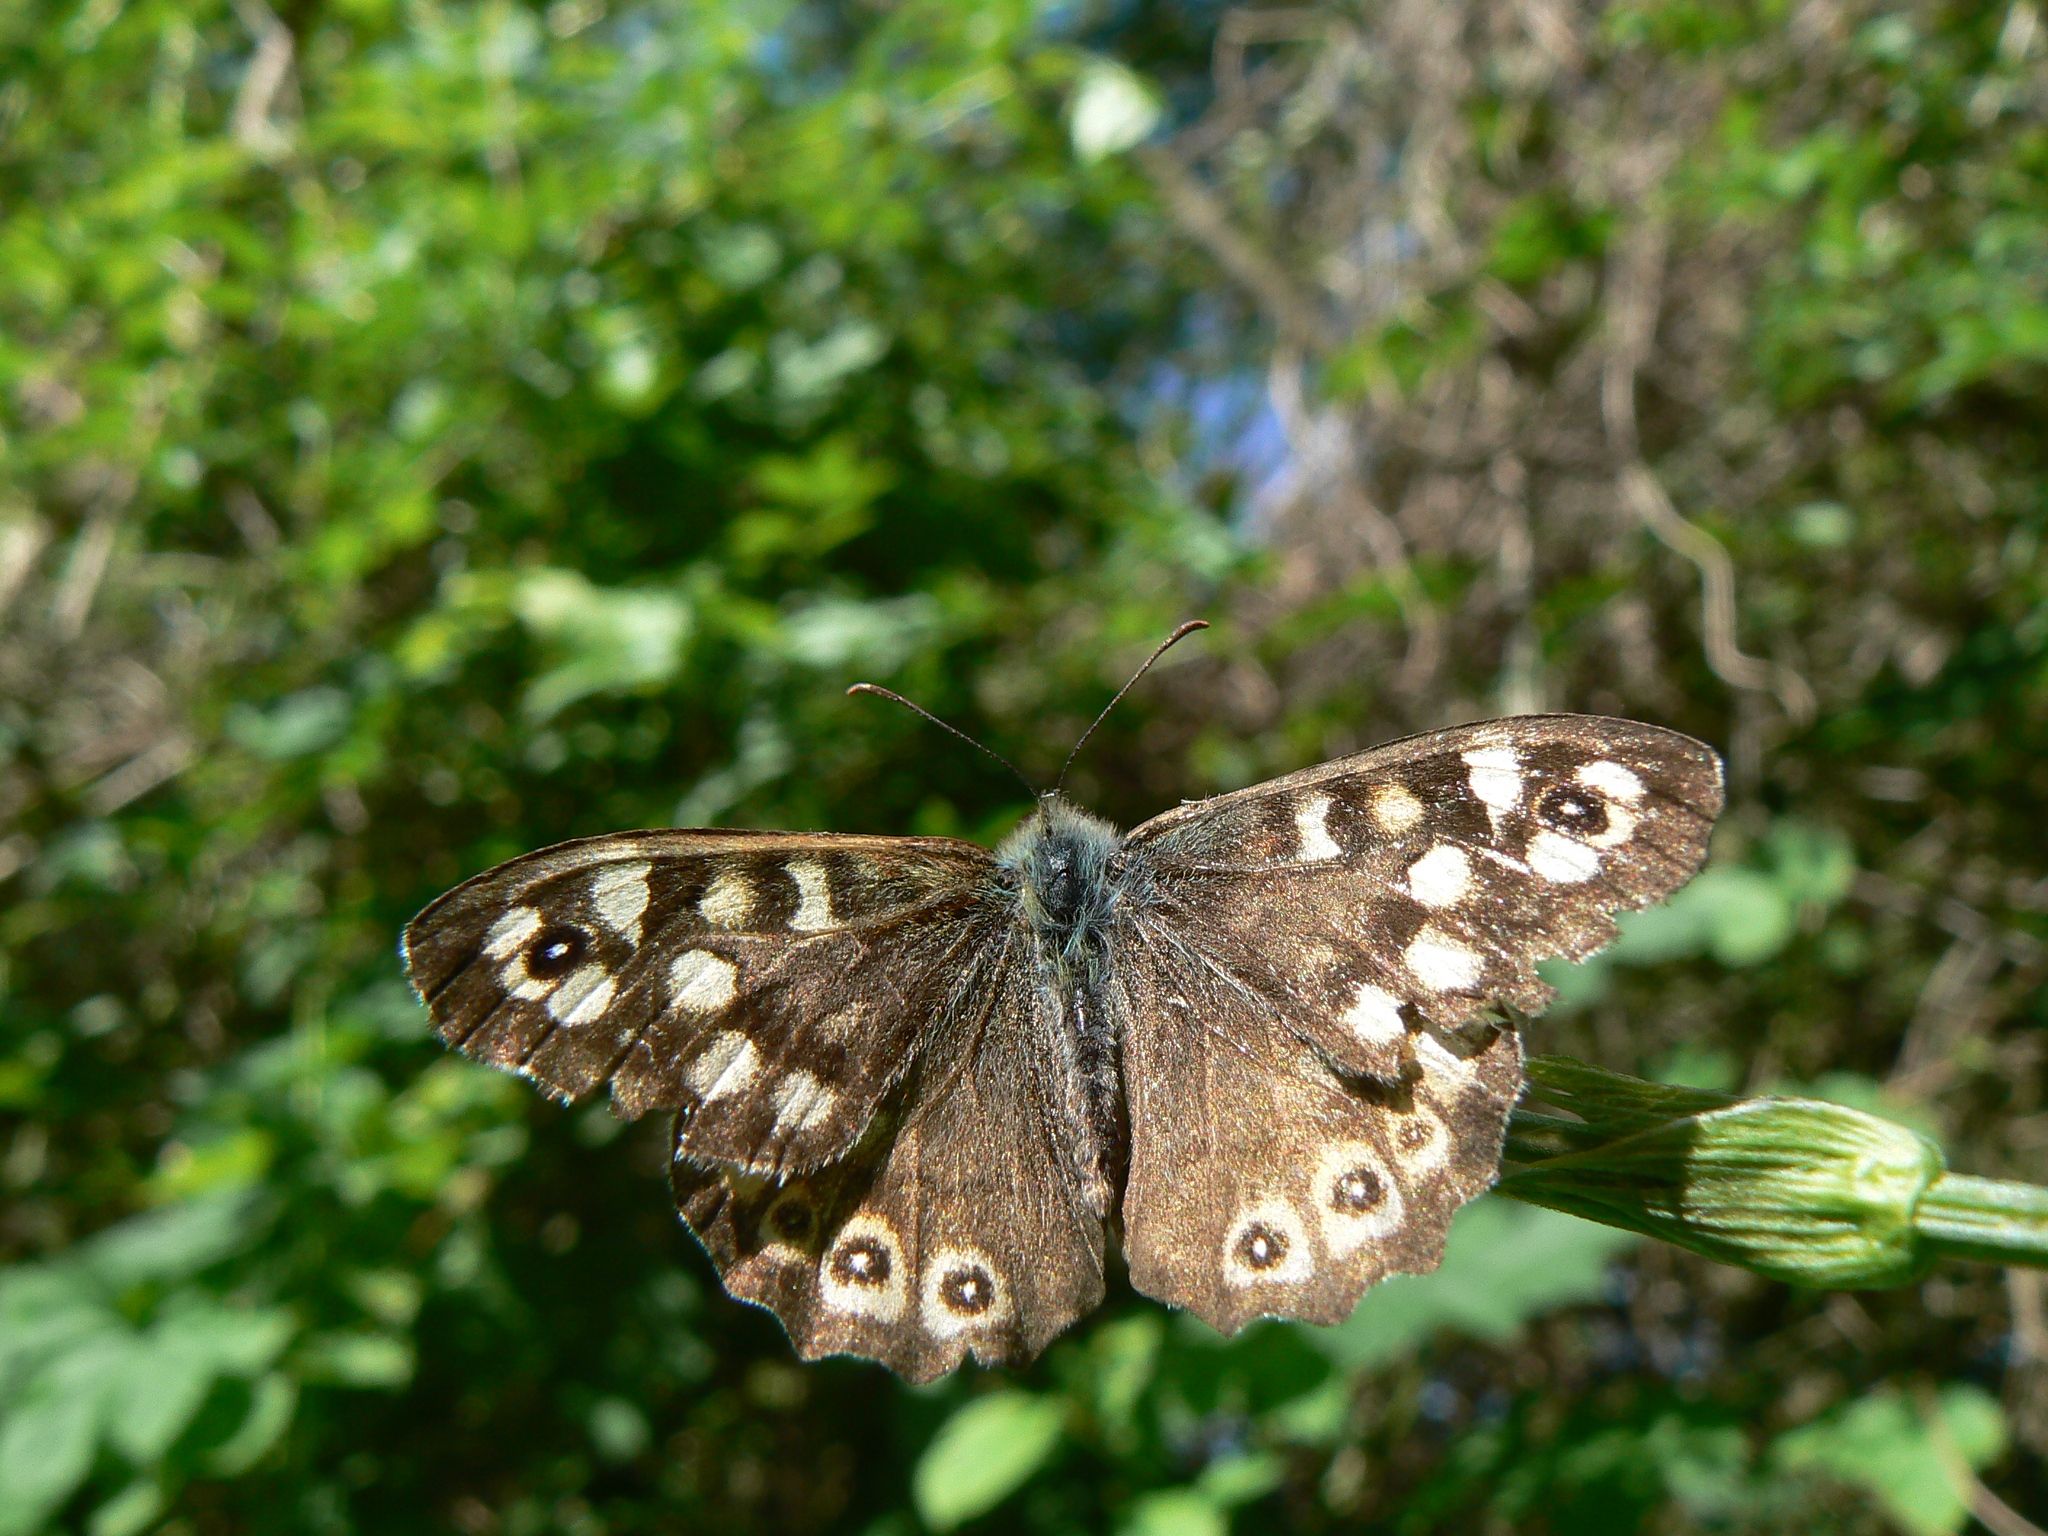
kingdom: Animalia
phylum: Arthropoda
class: Insecta
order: Lepidoptera
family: Nymphalidae
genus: Pararge
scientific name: Pararge aegeria
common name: Speckled wood
